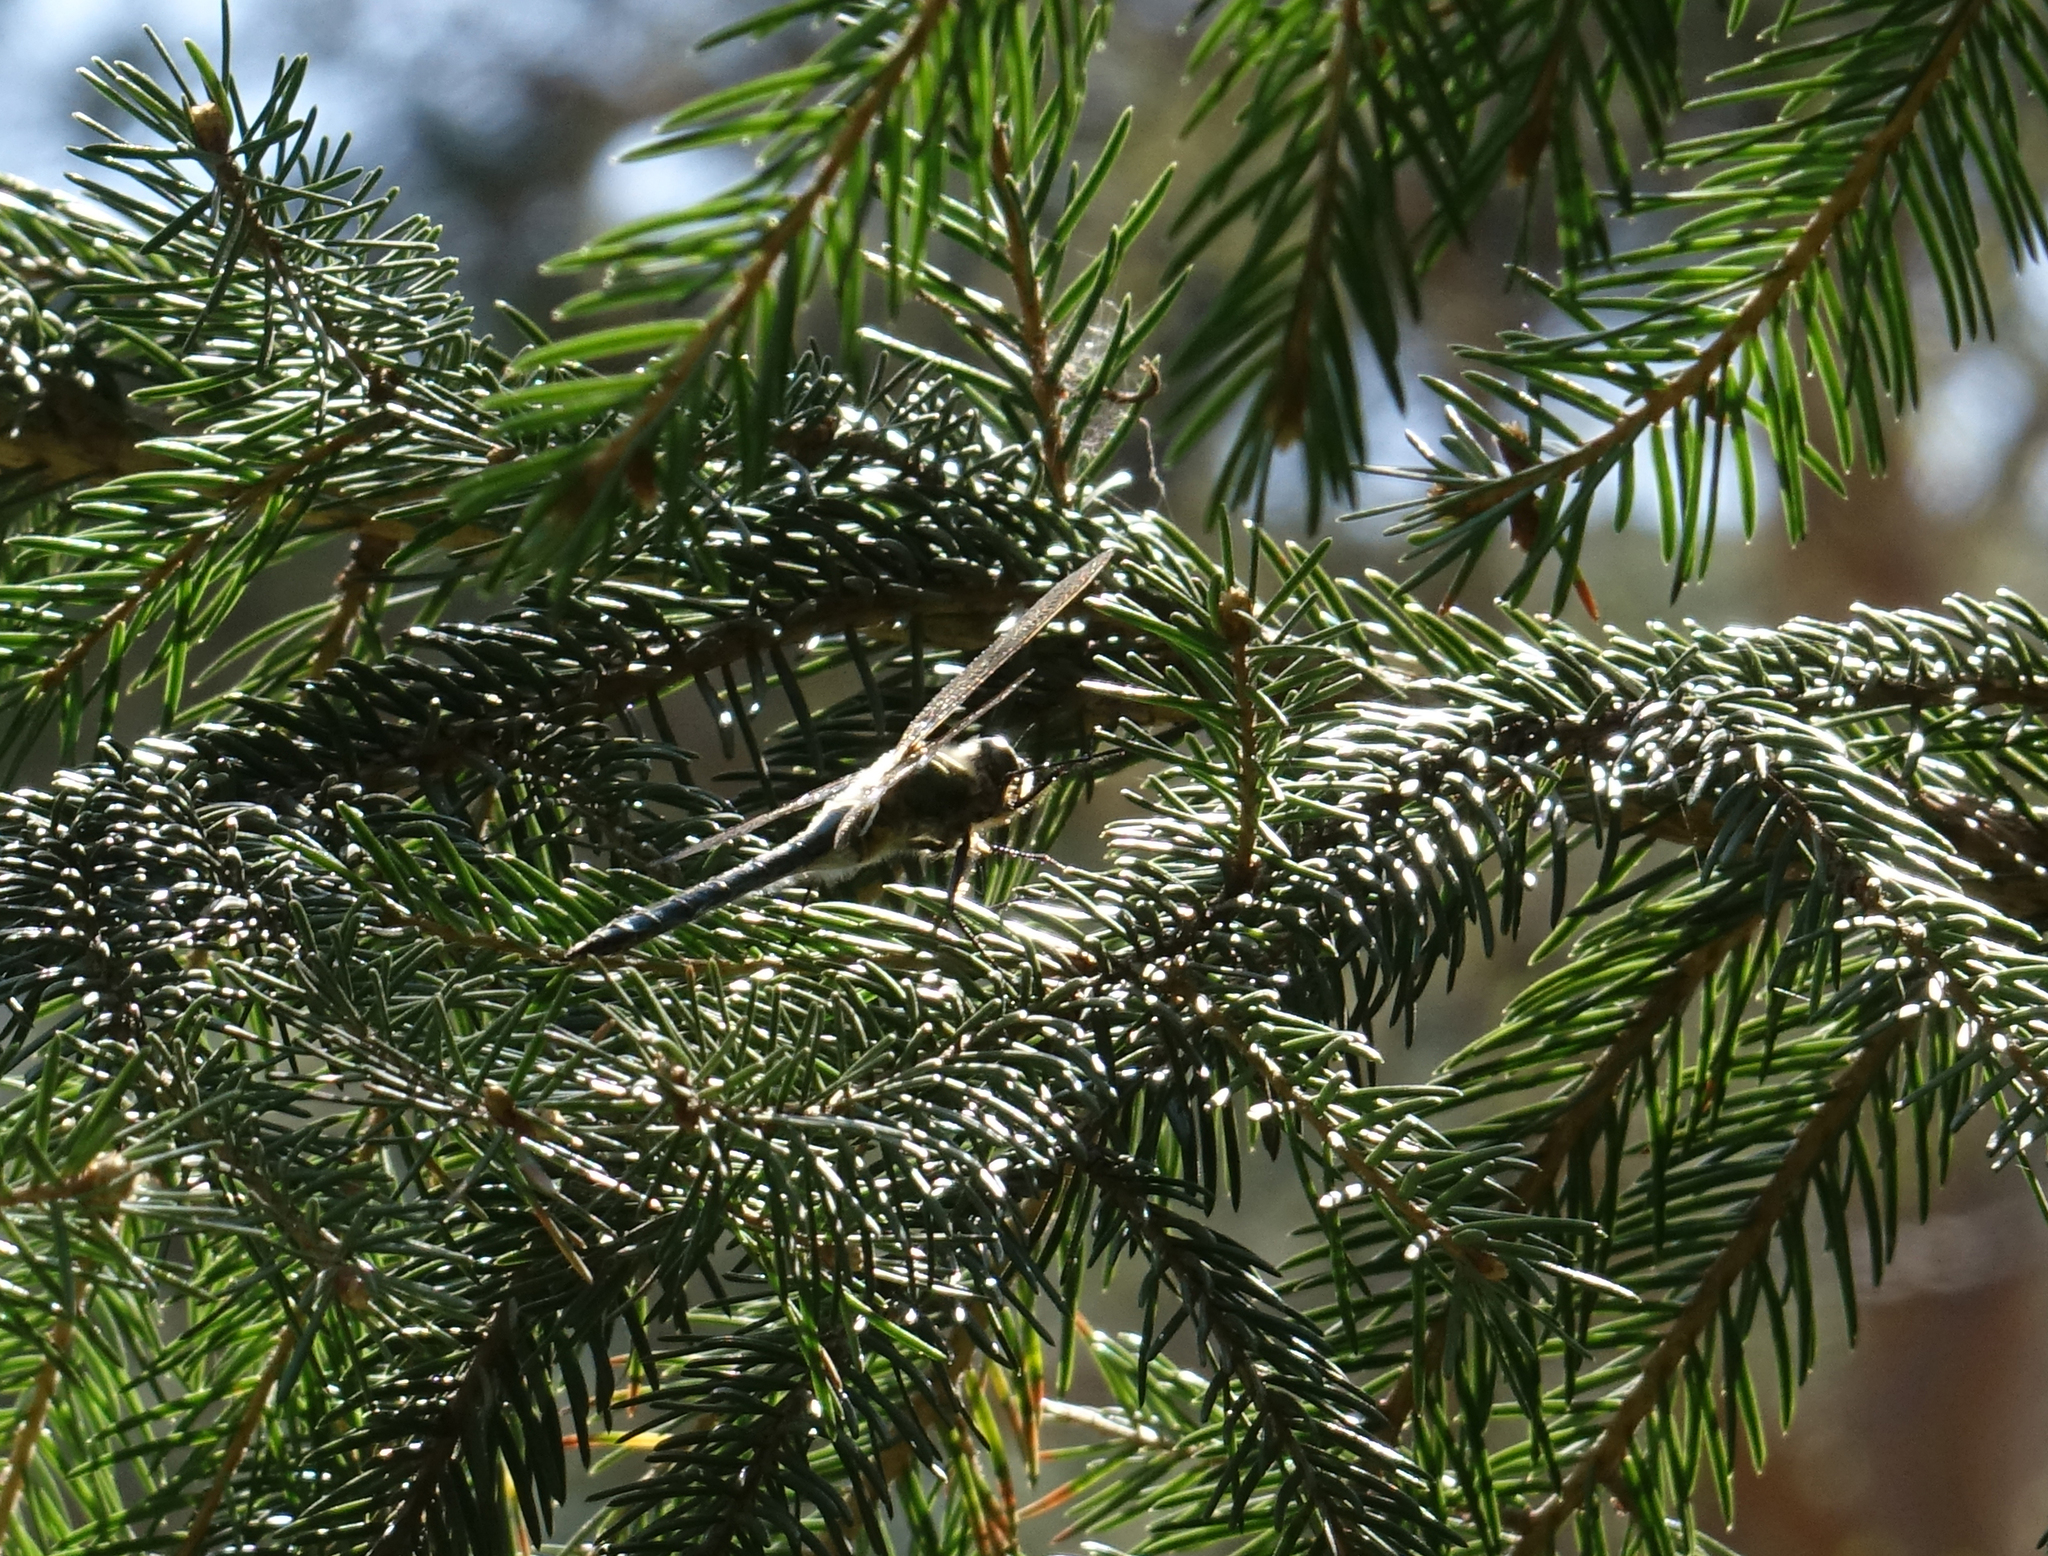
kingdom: Animalia
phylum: Arthropoda
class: Insecta
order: Odonata
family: Corduliidae
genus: Cordulia
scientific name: Cordulia aenea
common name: Downy emerald
